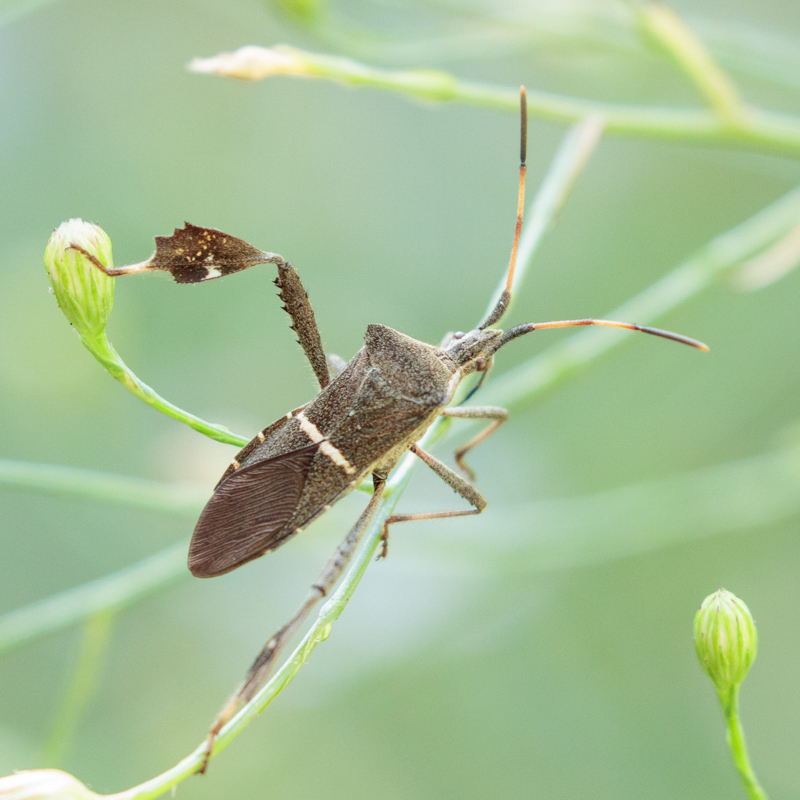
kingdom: Animalia
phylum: Arthropoda
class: Insecta
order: Hemiptera
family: Coreidae
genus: Leptoglossus
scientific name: Leptoglossus phyllopus
